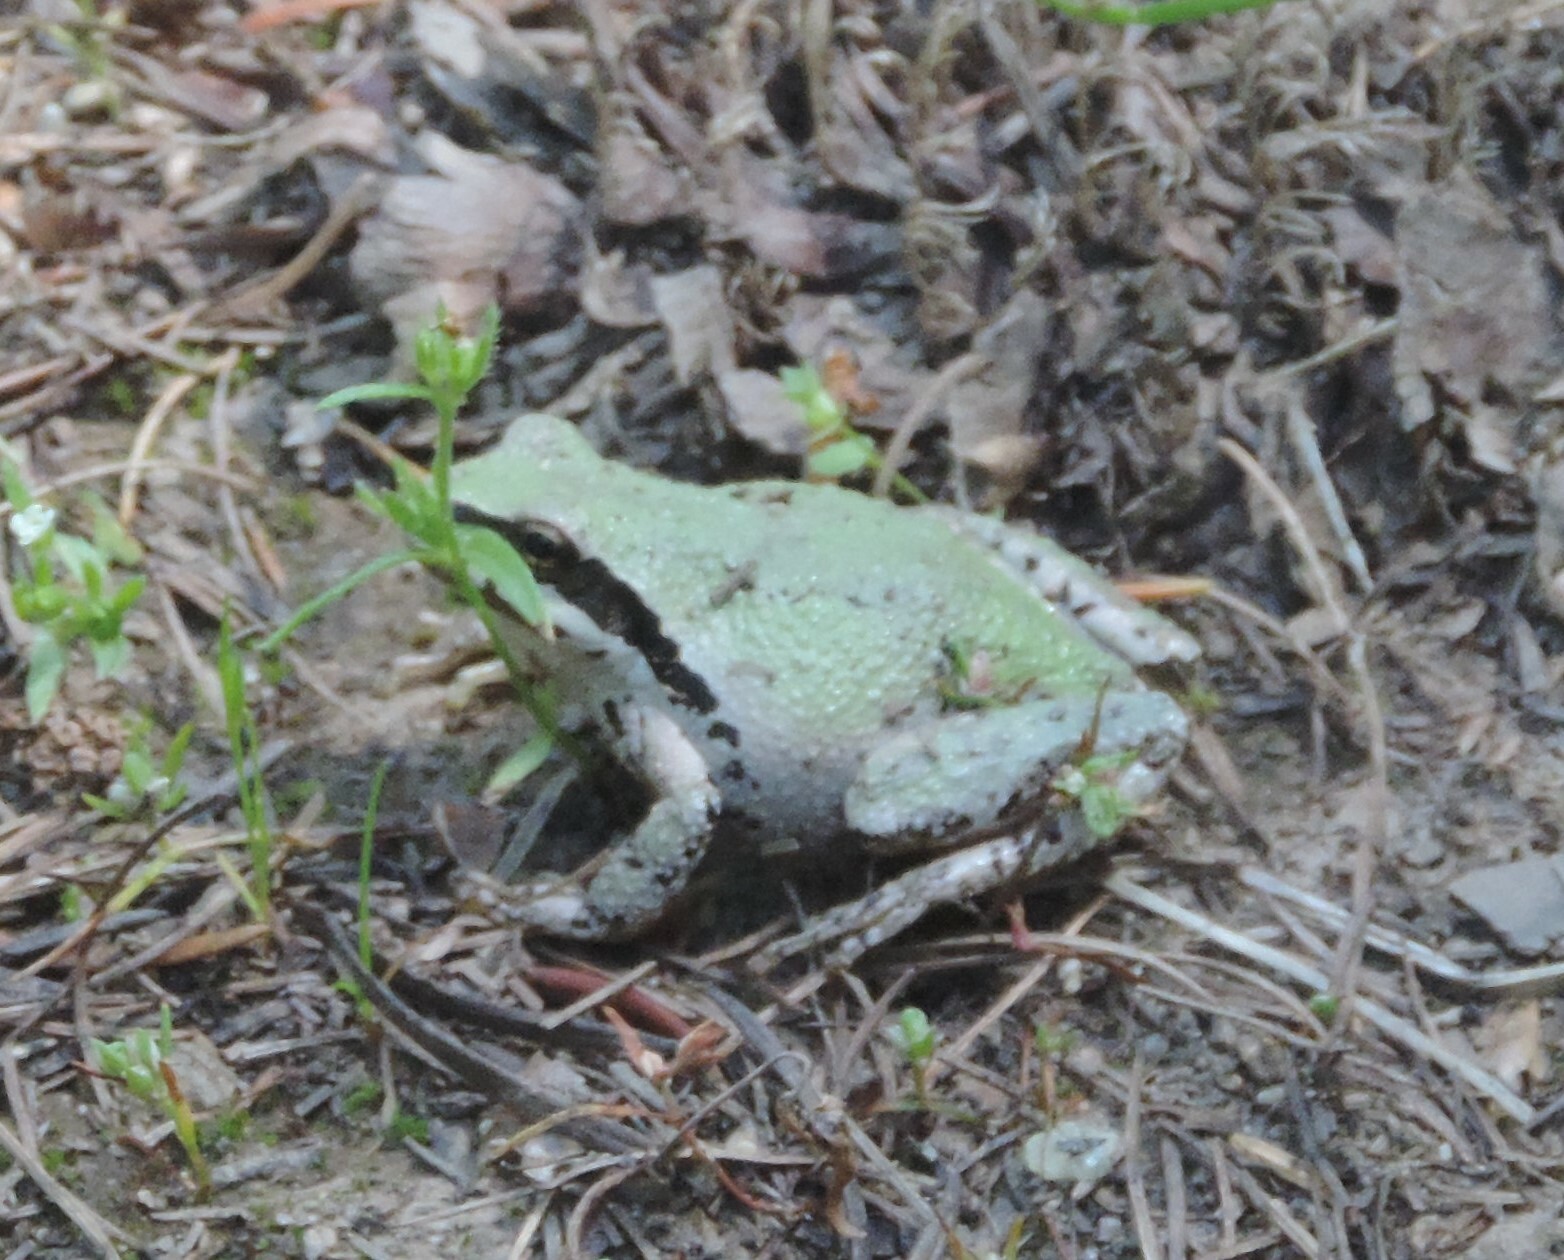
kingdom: Animalia
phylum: Chordata
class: Amphibia
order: Anura
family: Hylidae
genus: Pseudacris
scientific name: Pseudacris regilla
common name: Pacific chorus frog
